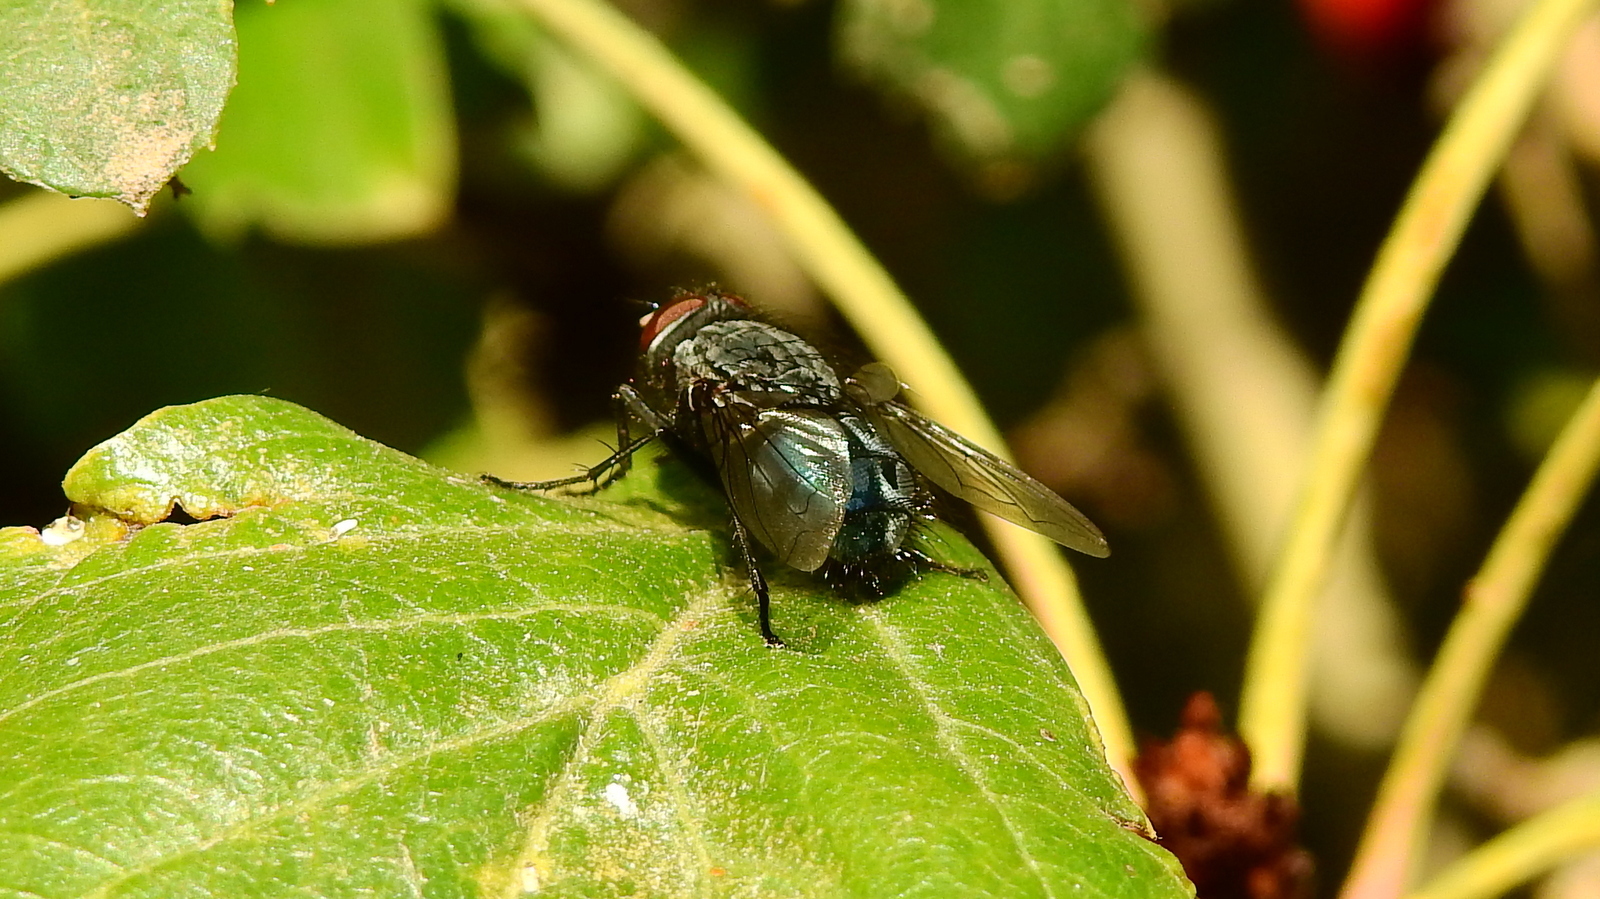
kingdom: Animalia
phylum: Arthropoda
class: Insecta
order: Diptera
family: Calliphoridae
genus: Calliphora
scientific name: Calliphora vicina
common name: Common blow flie
